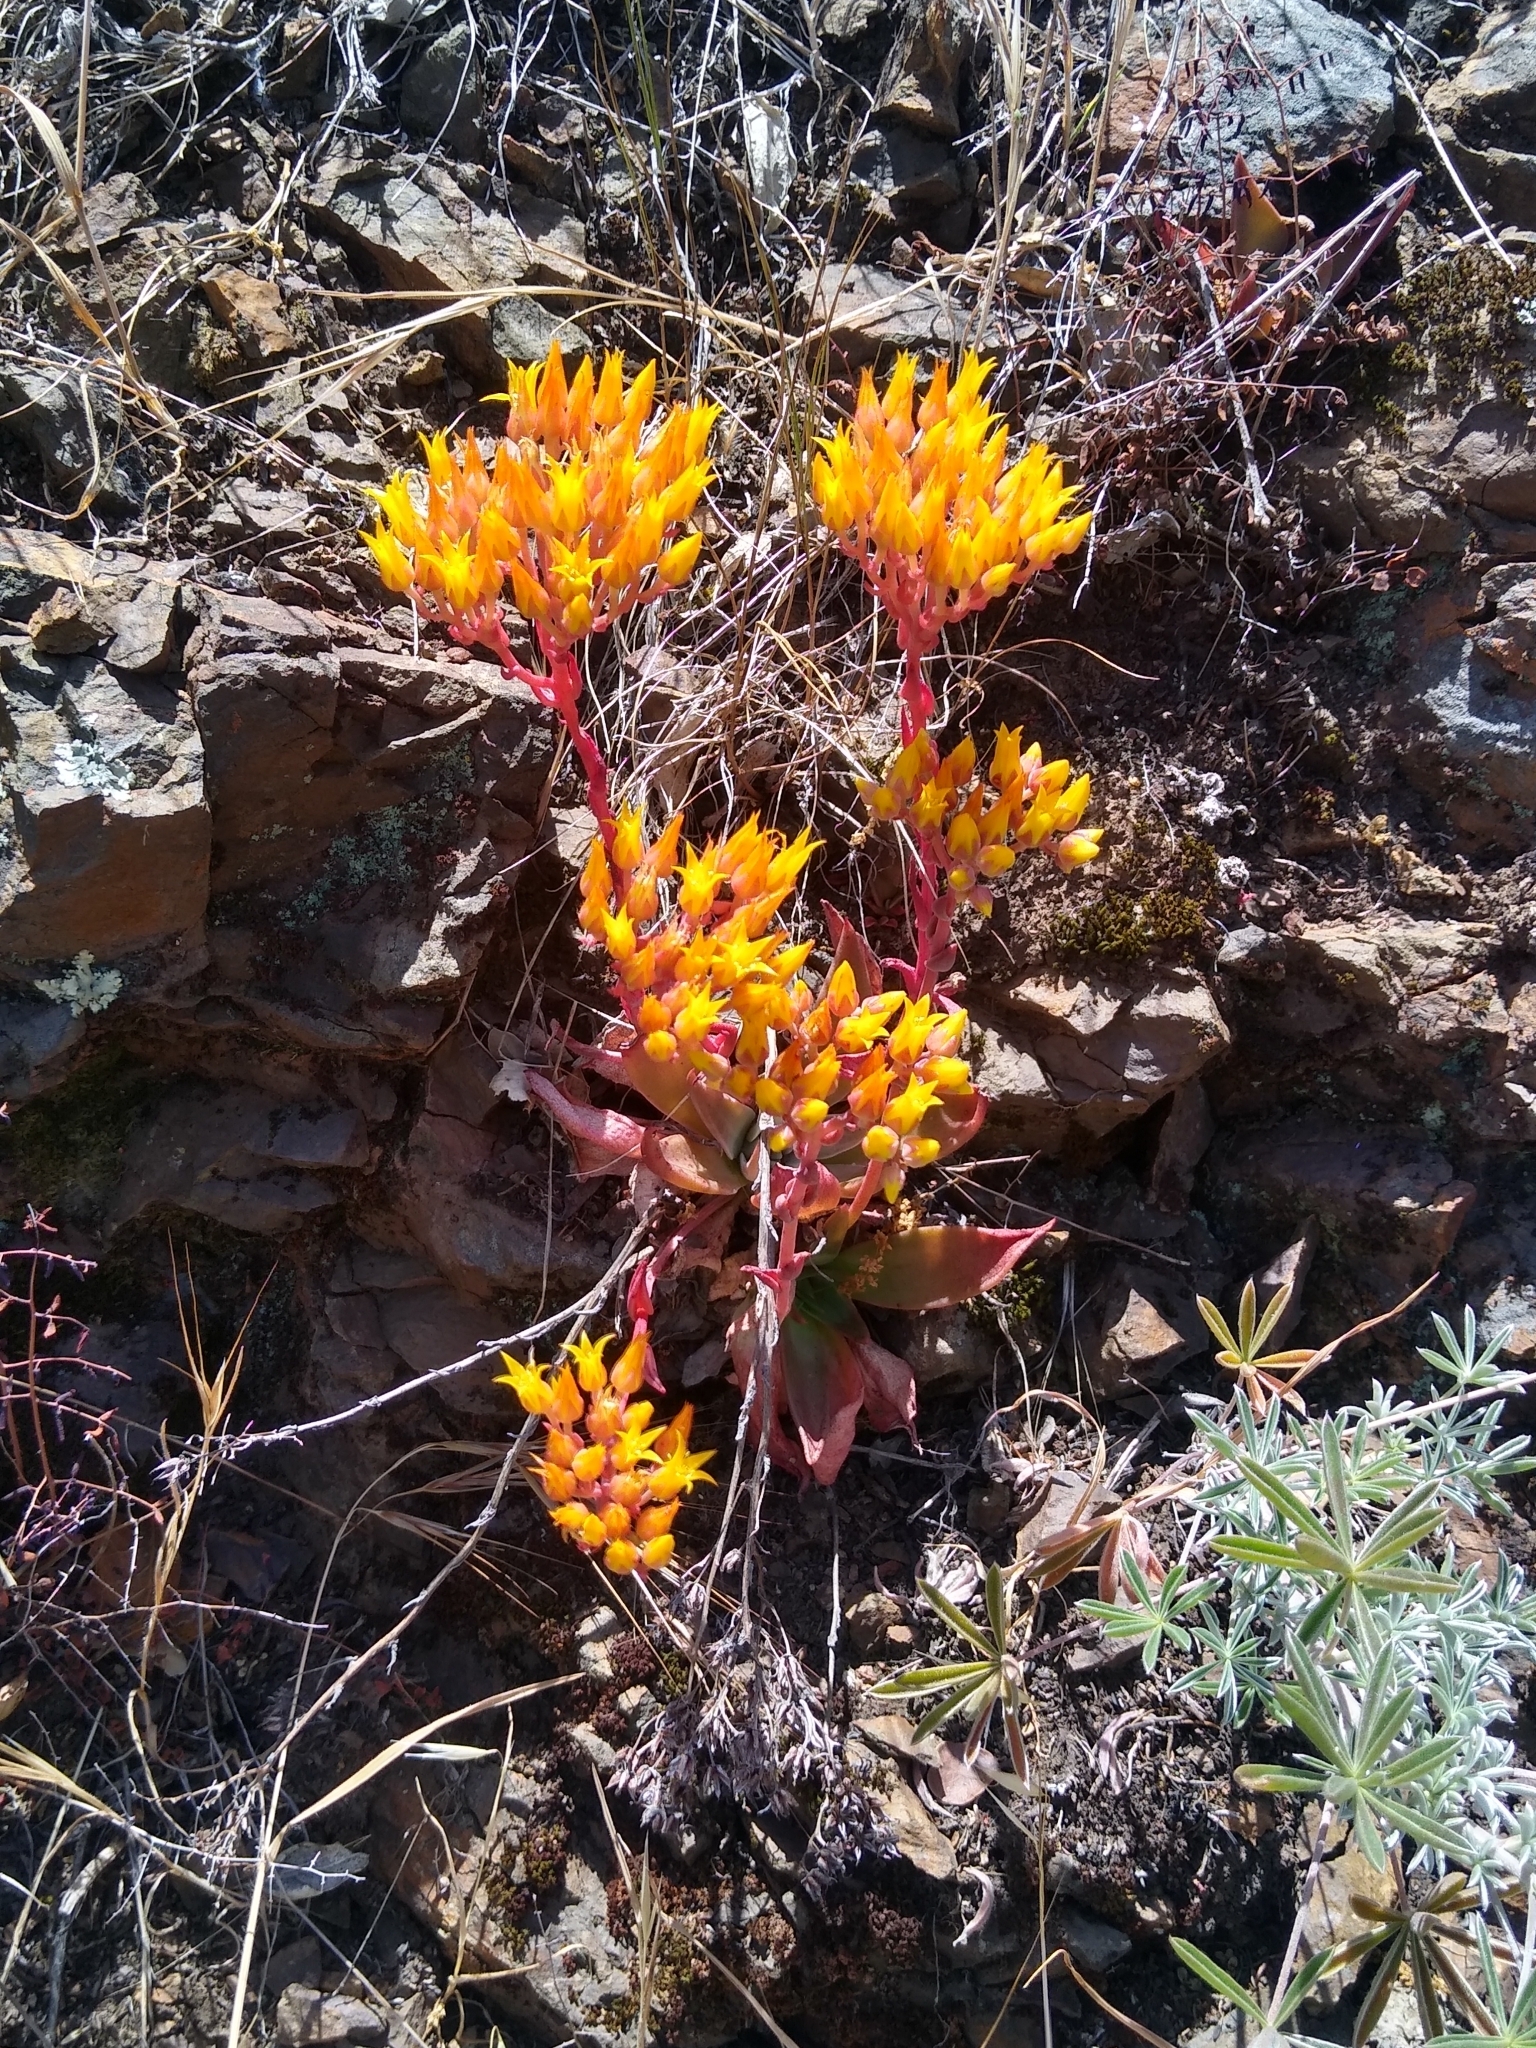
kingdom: Plantae
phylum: Tracheophyta
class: Magnoliopsida
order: Saxifragales
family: Crassulaceae
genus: Dudleya
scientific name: Dudleya cymosa
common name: Canyon dudleya
